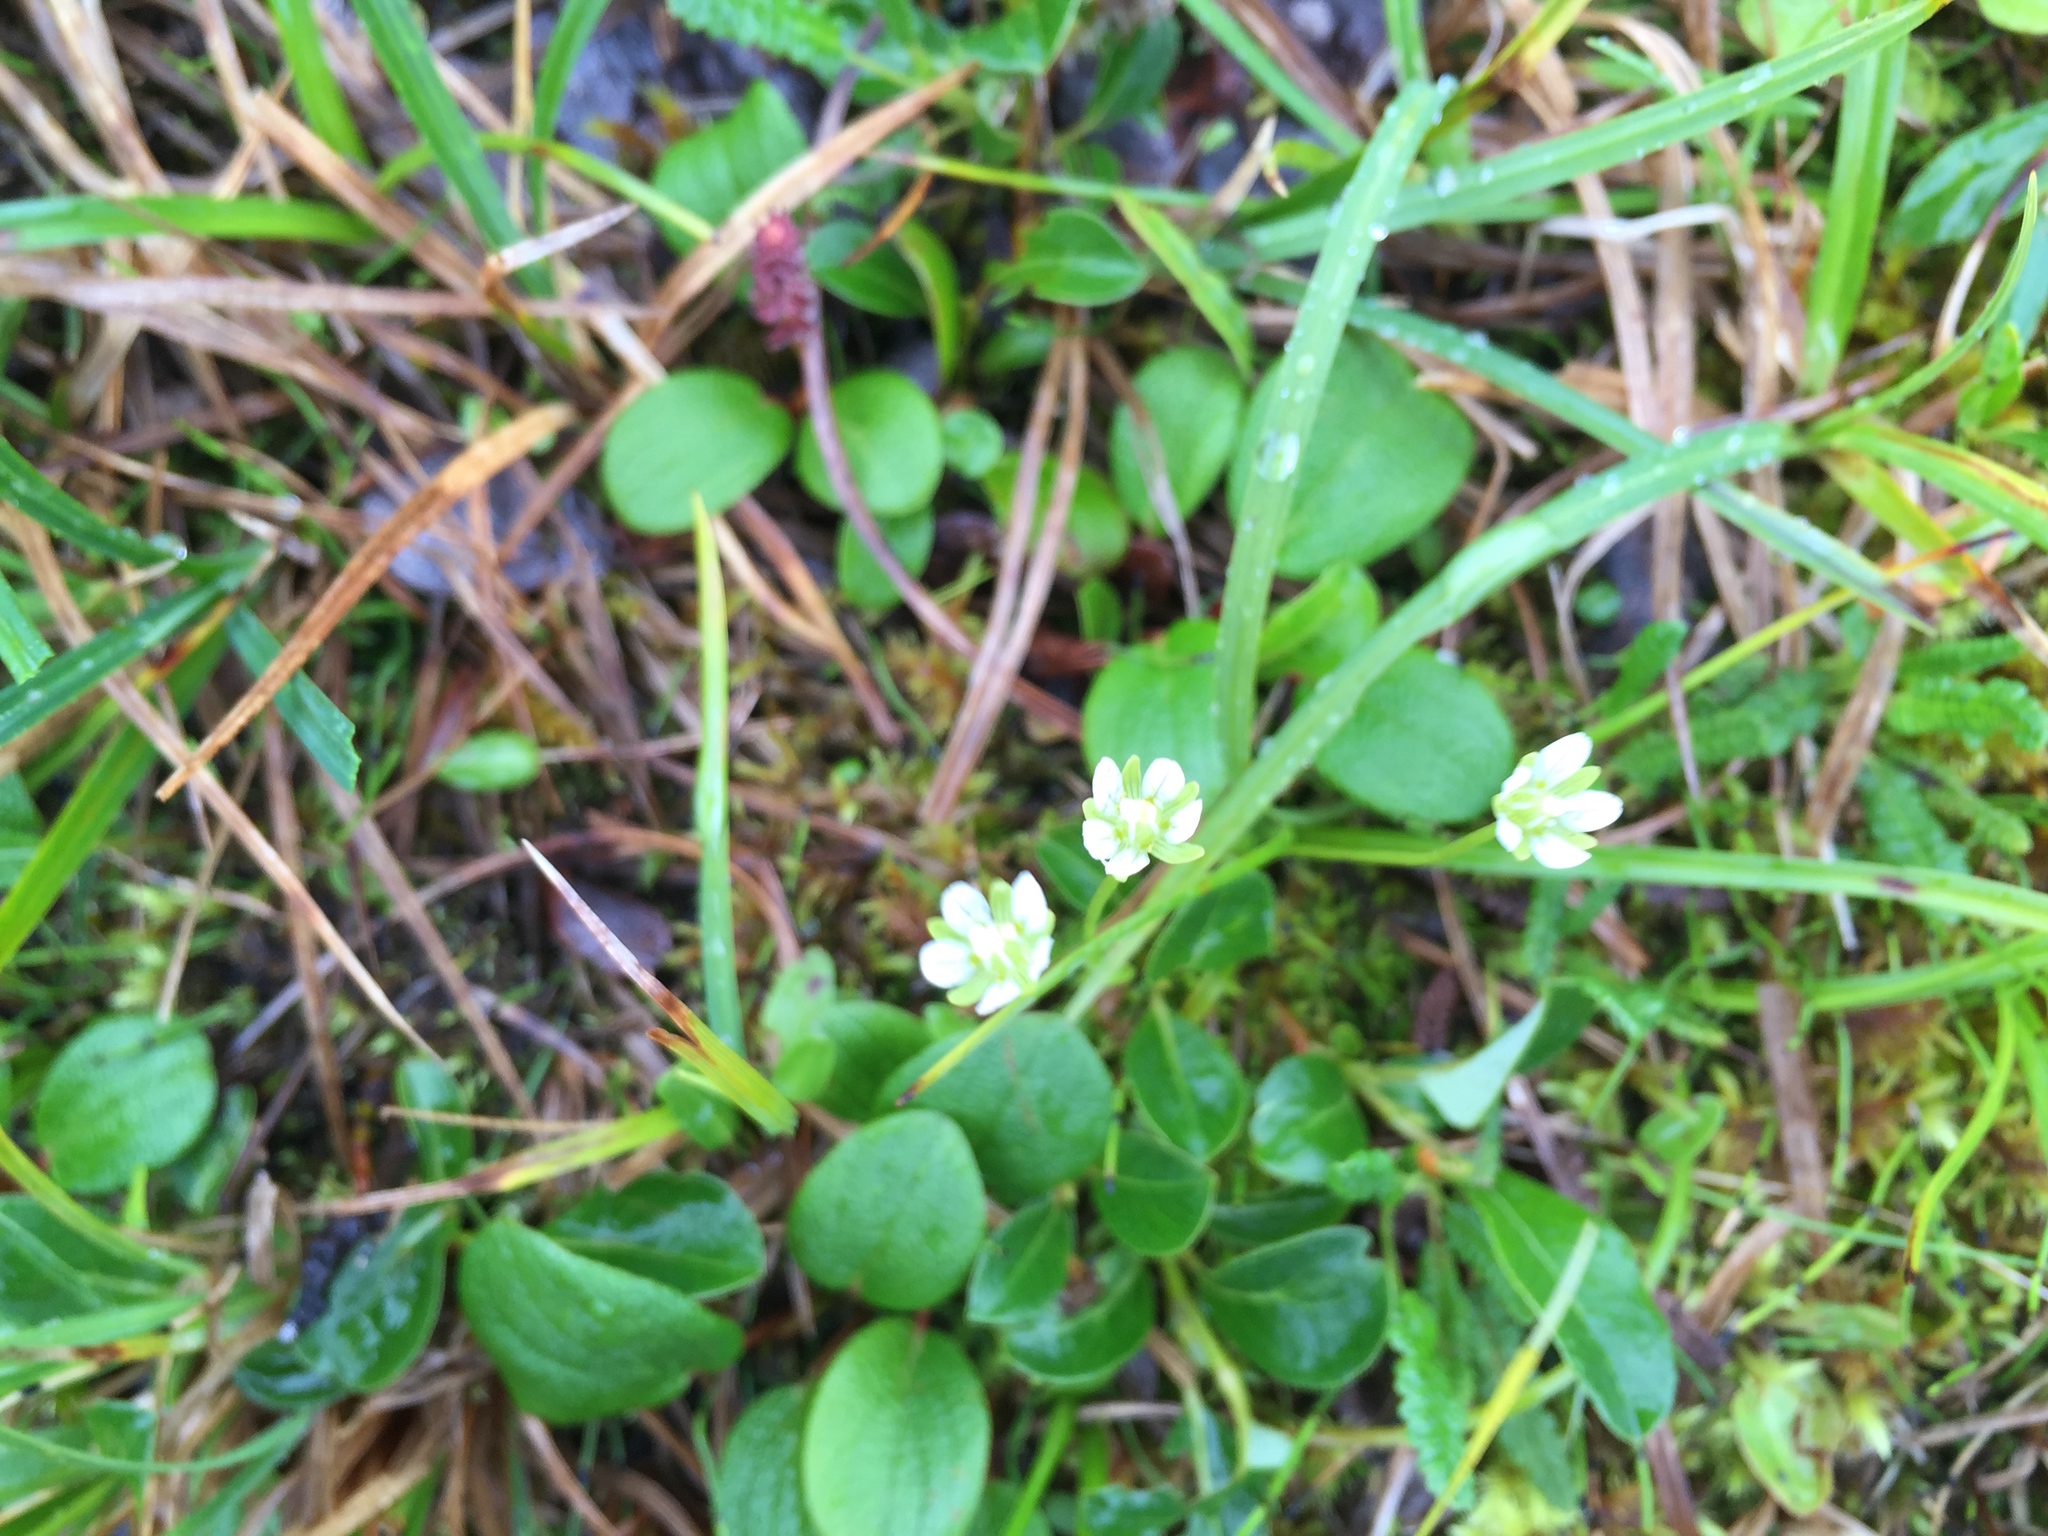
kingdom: Plantae
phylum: Tracheophyta
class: Magnoliopsida
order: Celastrales
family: Parnassiaceae
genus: Parnassia
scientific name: Parnassia kotzebuei
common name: Kotzebue's grass-of-parnassus
